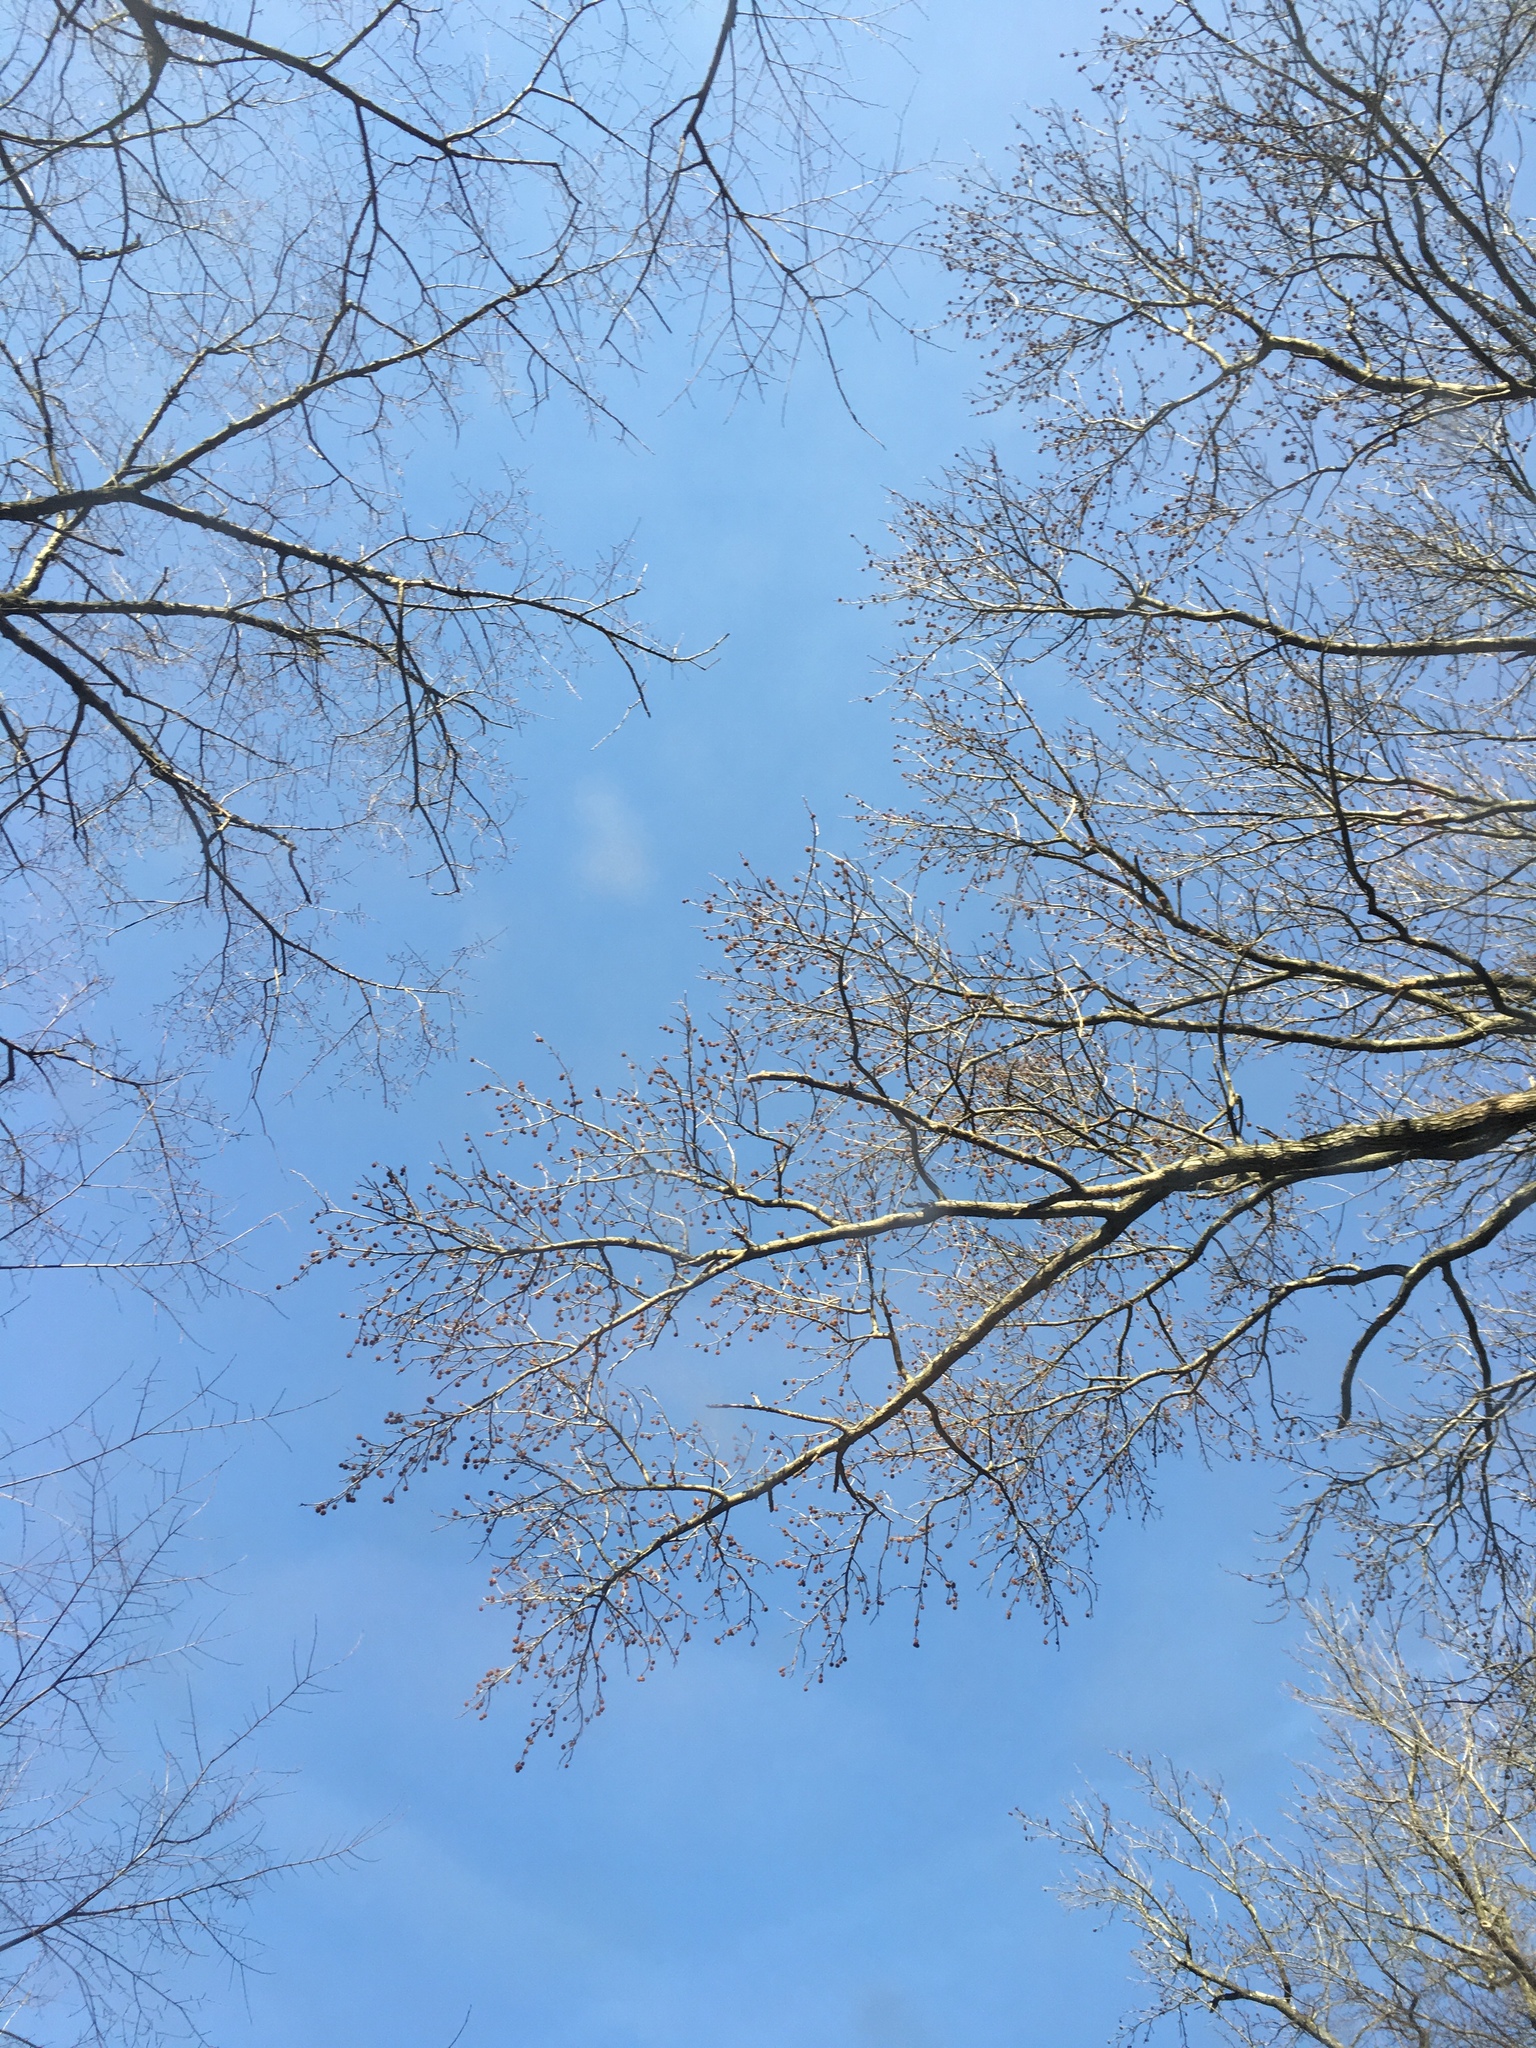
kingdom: Plantae
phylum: Tracheophyta
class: Magnoliopsida
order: Saxifragales
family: Altingiaceae
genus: Liquidambar
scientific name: Liquidambar styraciflua
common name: Sweet gum
